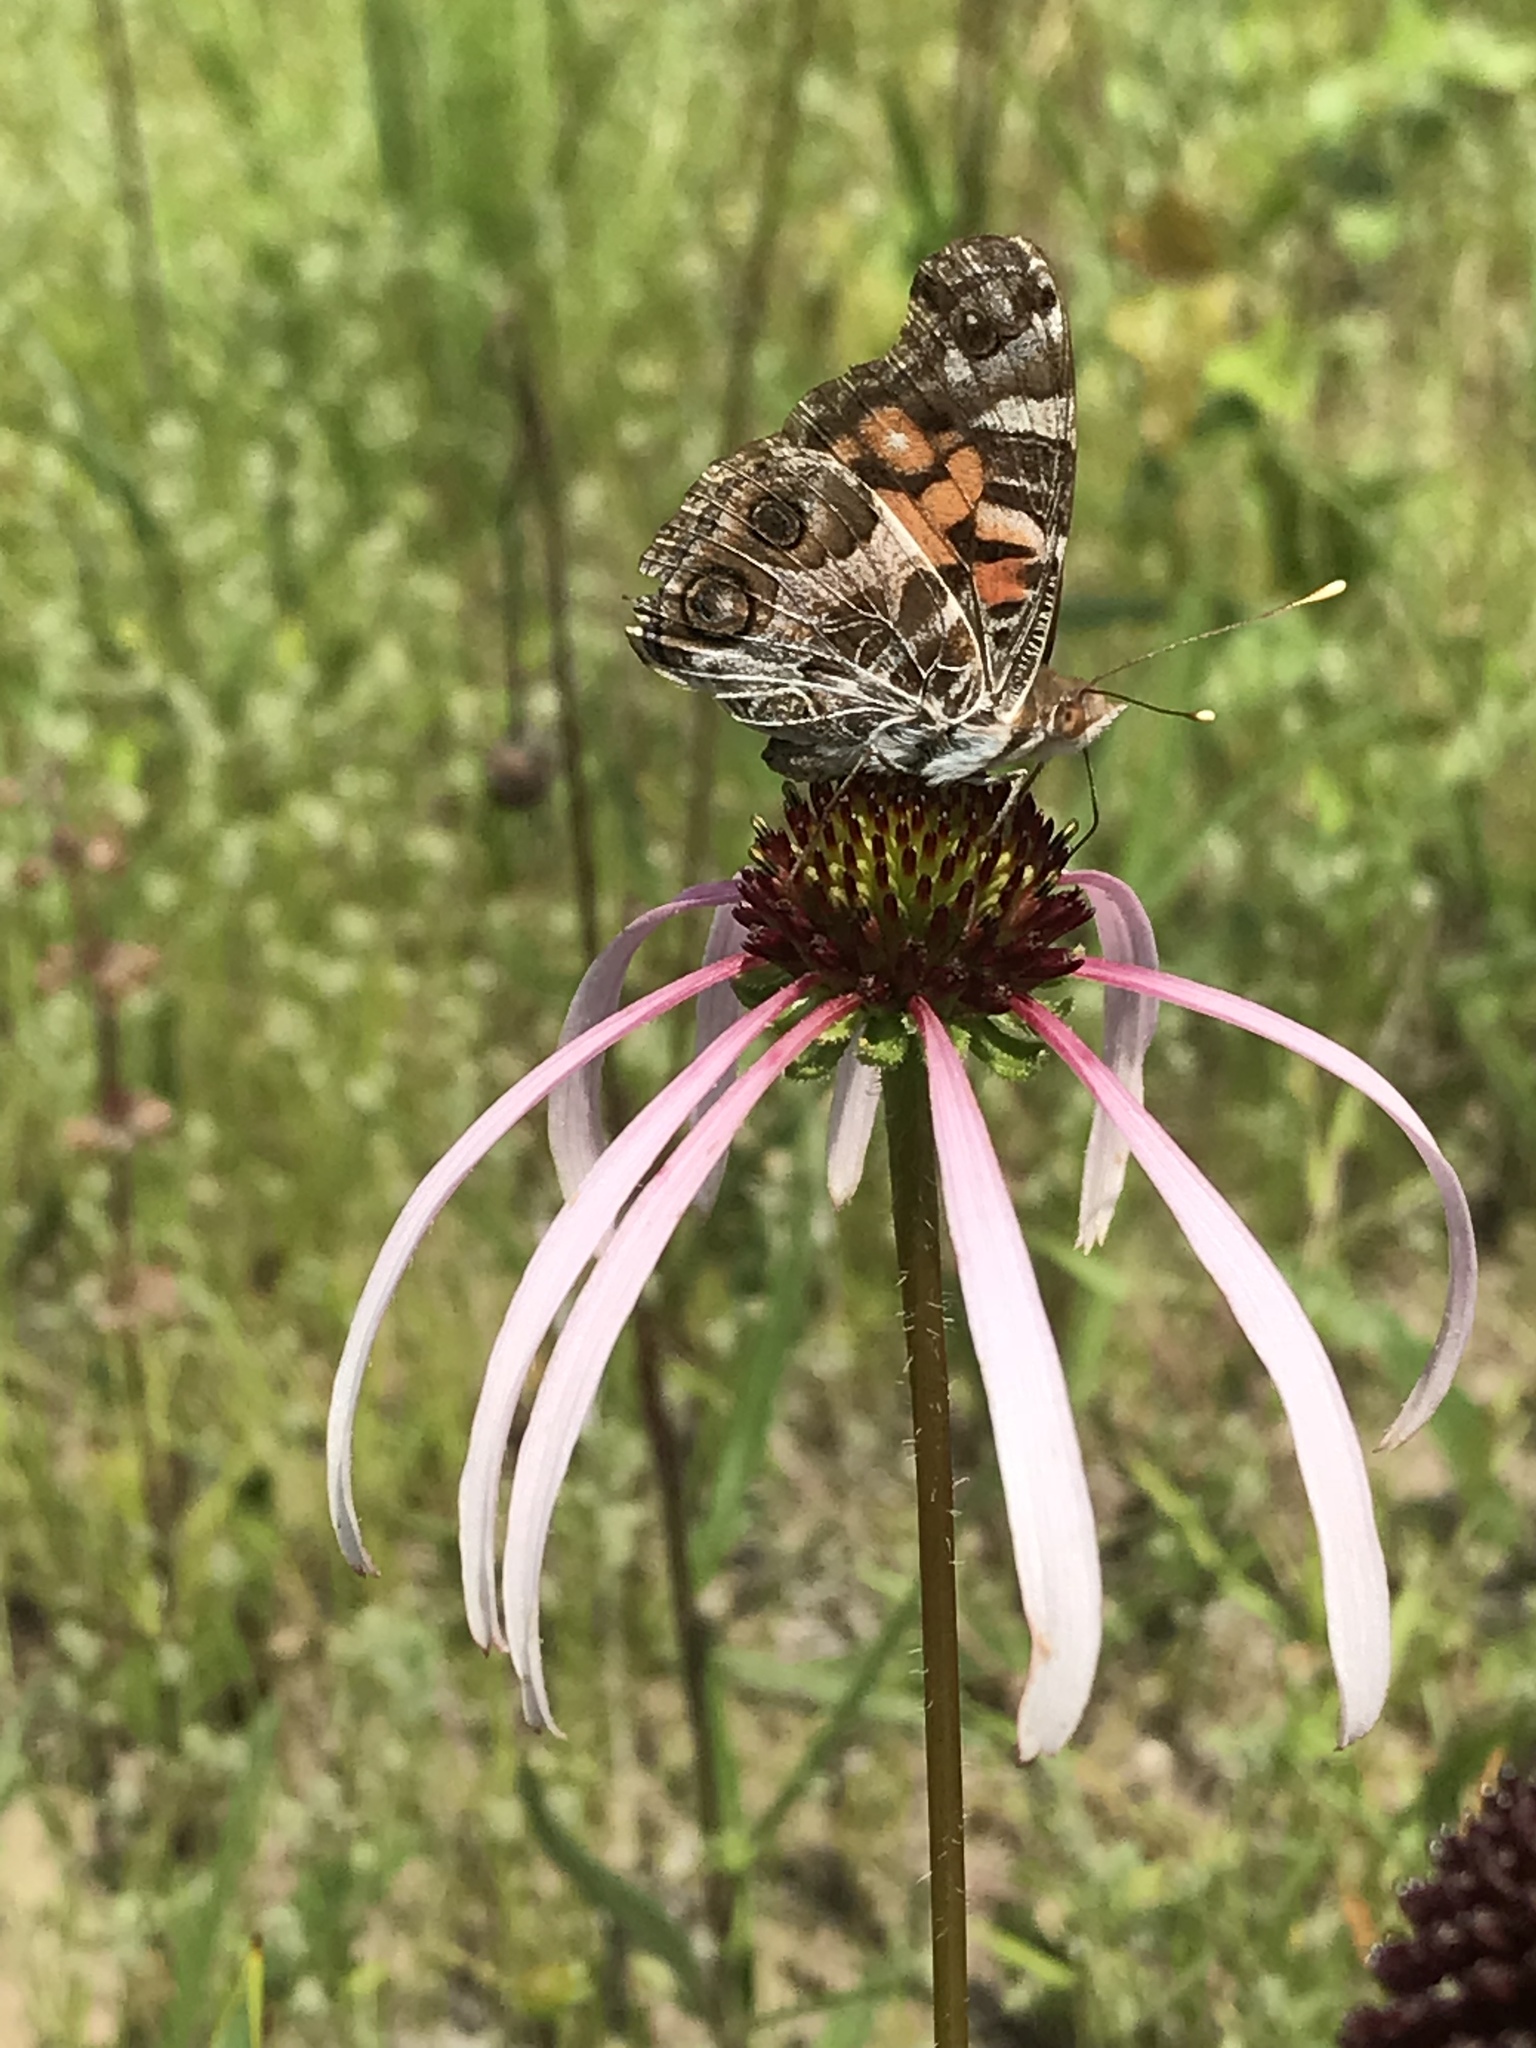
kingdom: Animalia
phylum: Arthropoda
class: Insecta
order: Lepidoptera
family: Nymphalidae
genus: Vanessa
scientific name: Vanessa virginiensis
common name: American lady
